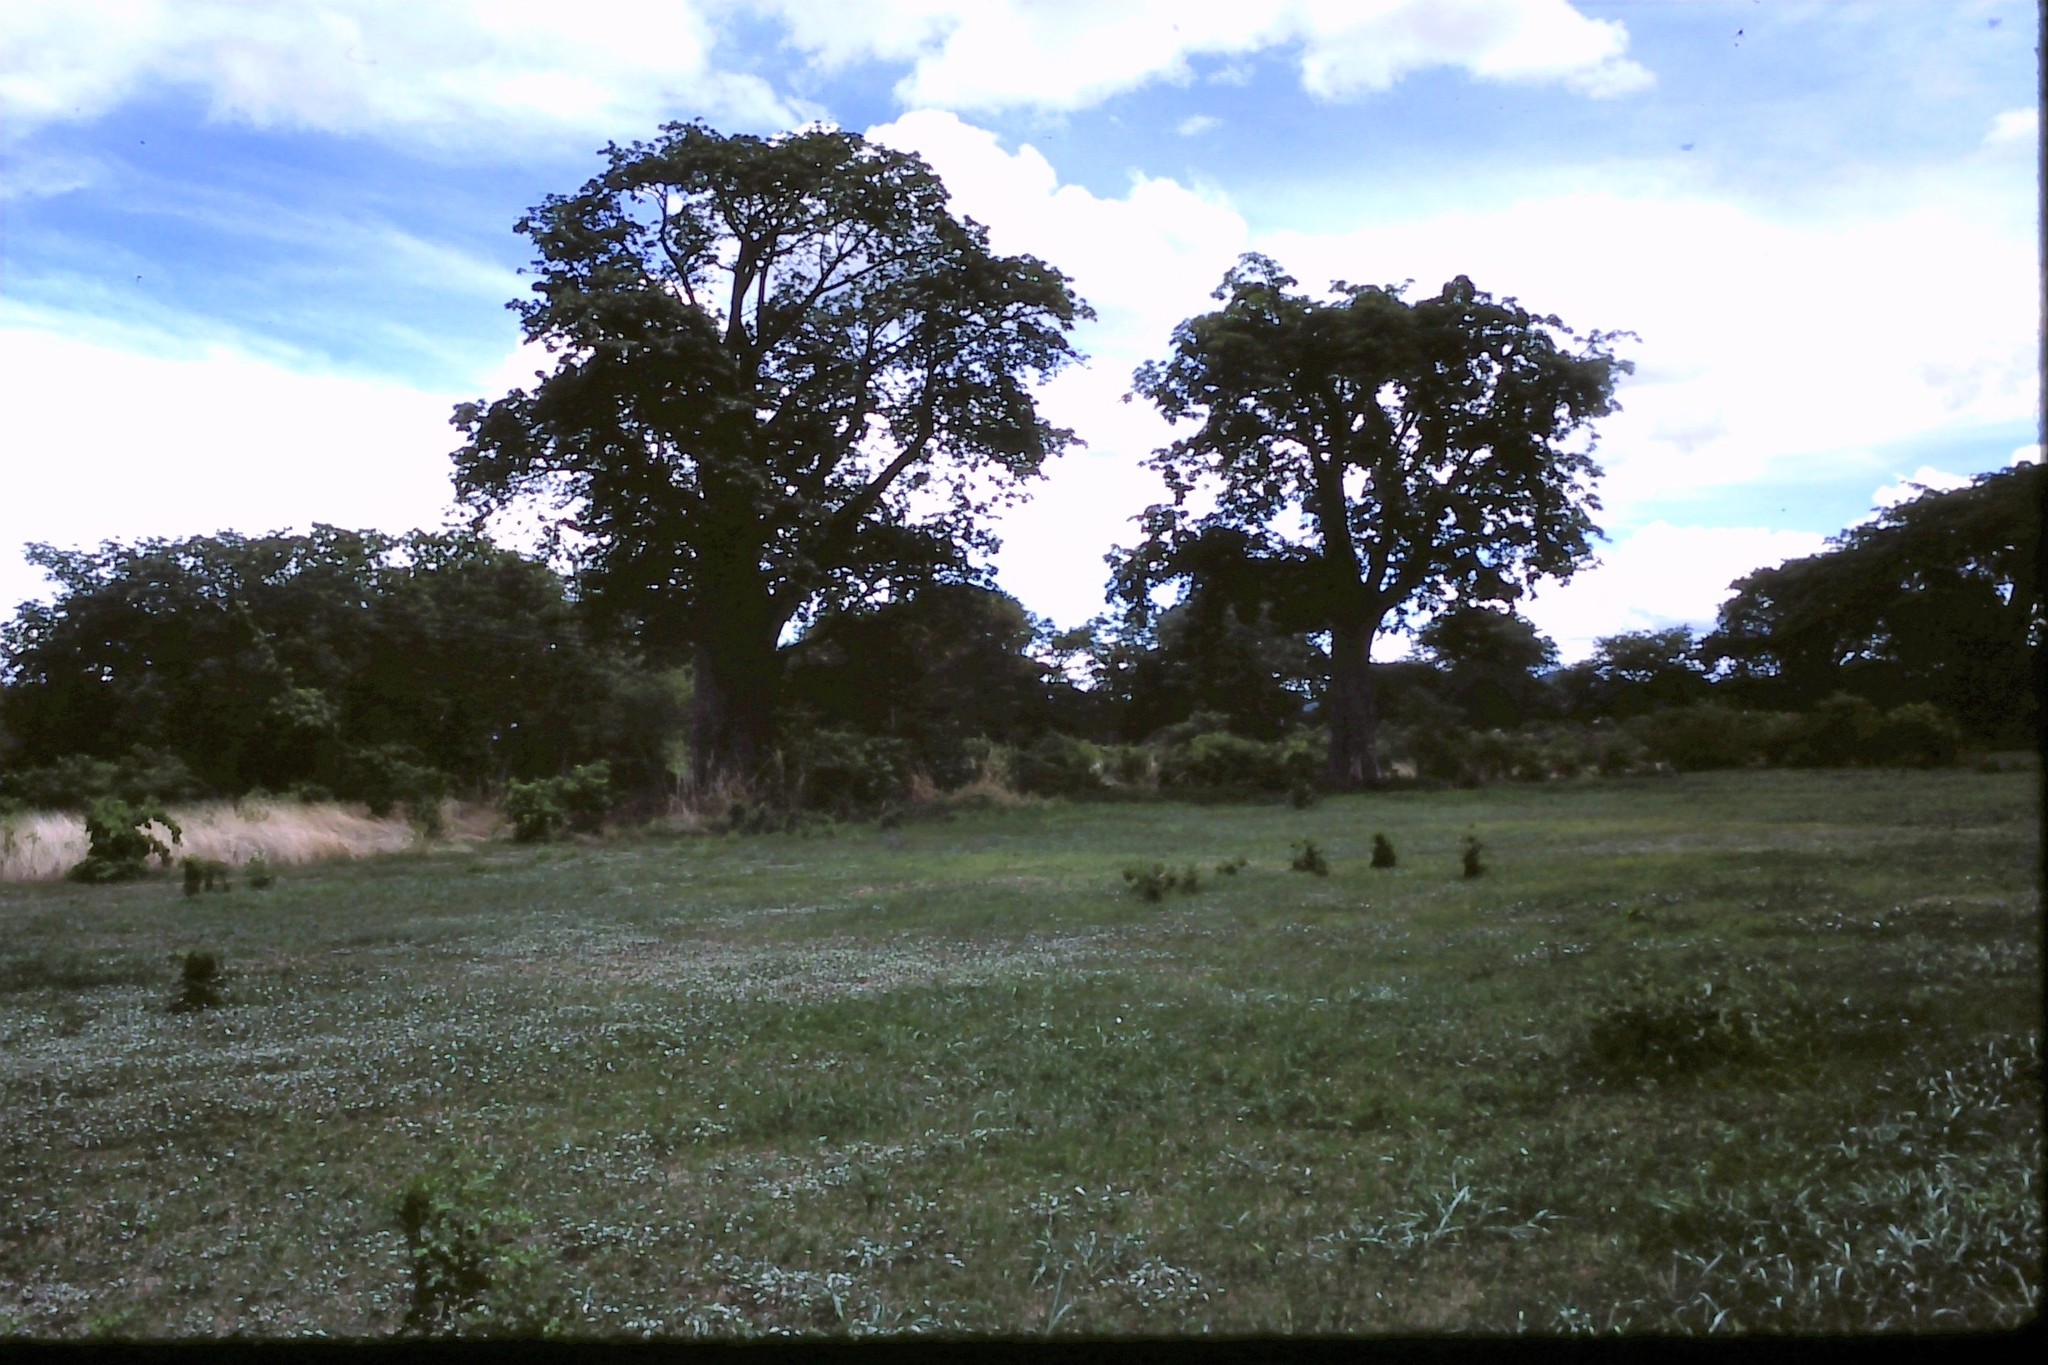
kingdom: Plantae
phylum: Tracheophyta
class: Magnoliopsida
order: Malvales
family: Malvaceae
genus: Adansonia
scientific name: Adansonia digitata
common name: Dead-rat-tree
